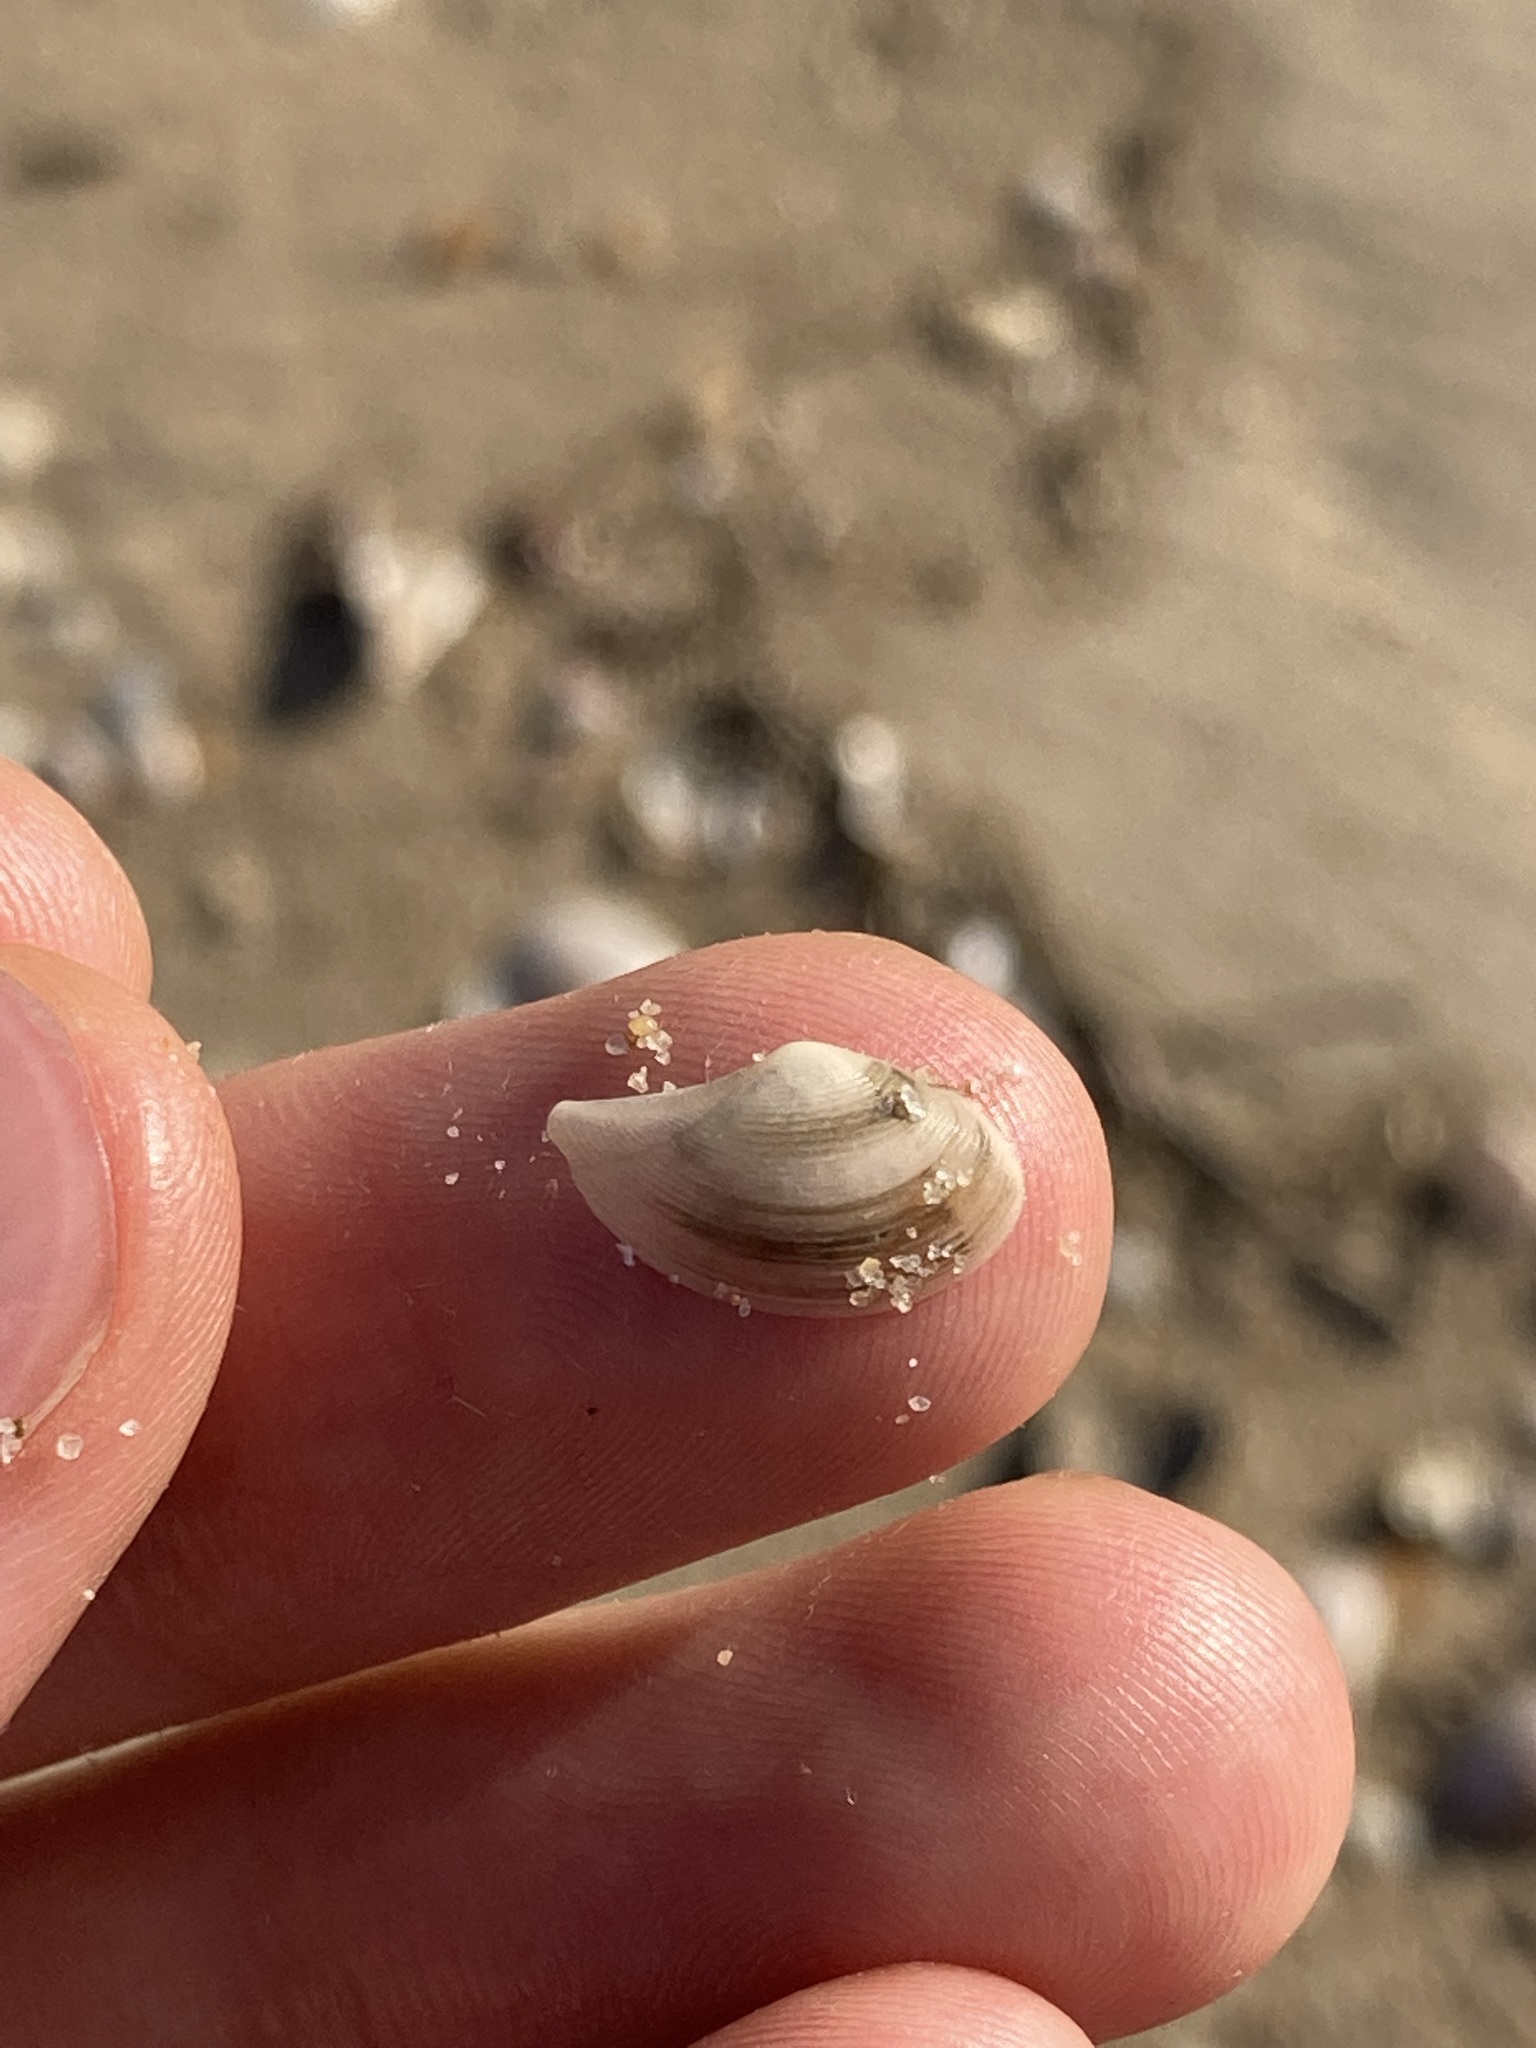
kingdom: Animalia
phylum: Mollusca
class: Bivalvia
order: Nuculanida
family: Nuculanidae
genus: Nuculana
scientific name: Nuculana dohrni
